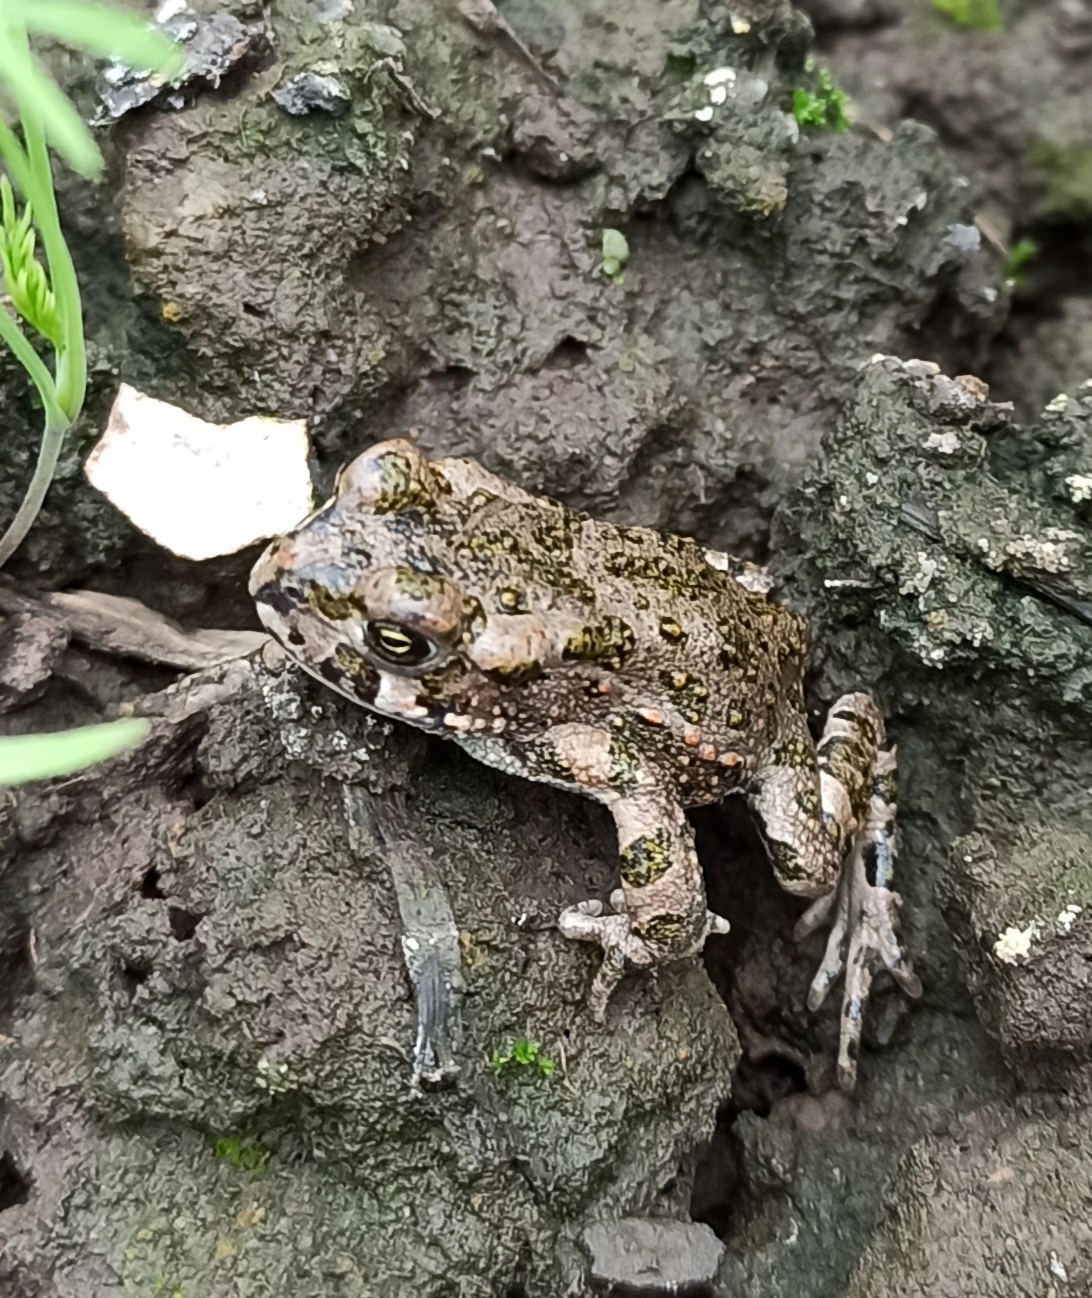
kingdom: Animalia
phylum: Chordata
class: Amphibia
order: Anura
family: Bufonidae
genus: Bufotes
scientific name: Bufotes viridis
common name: European green toad
